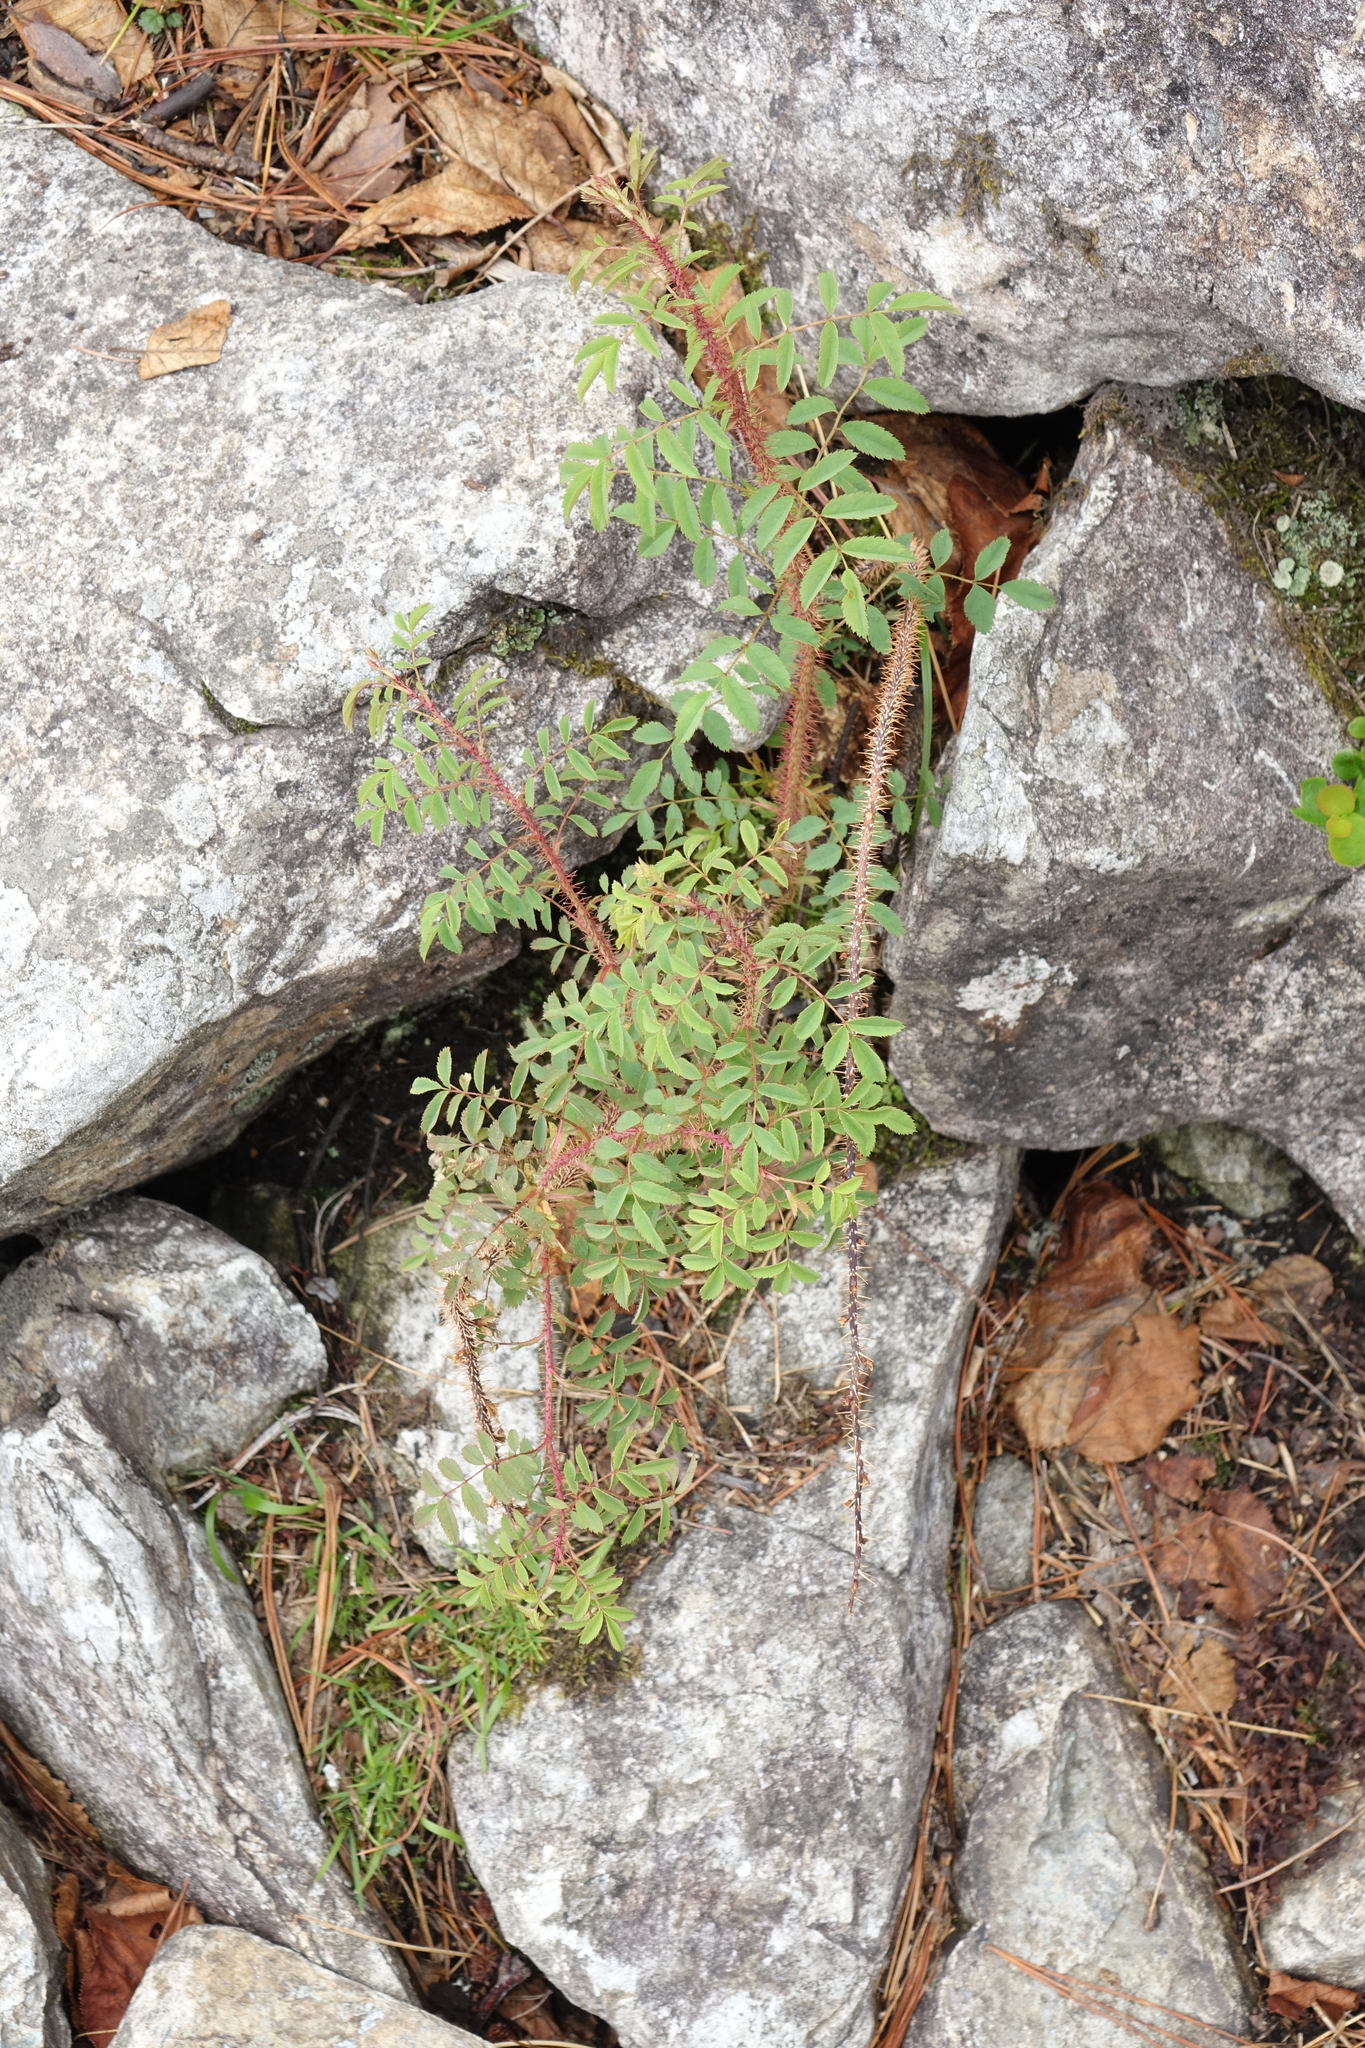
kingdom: Plantae
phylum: Tracheophyta
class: Magnoliopsida
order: Rosales
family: Rosaceae
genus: Rosa
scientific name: Rosa spinosissima
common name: Burnet rose
